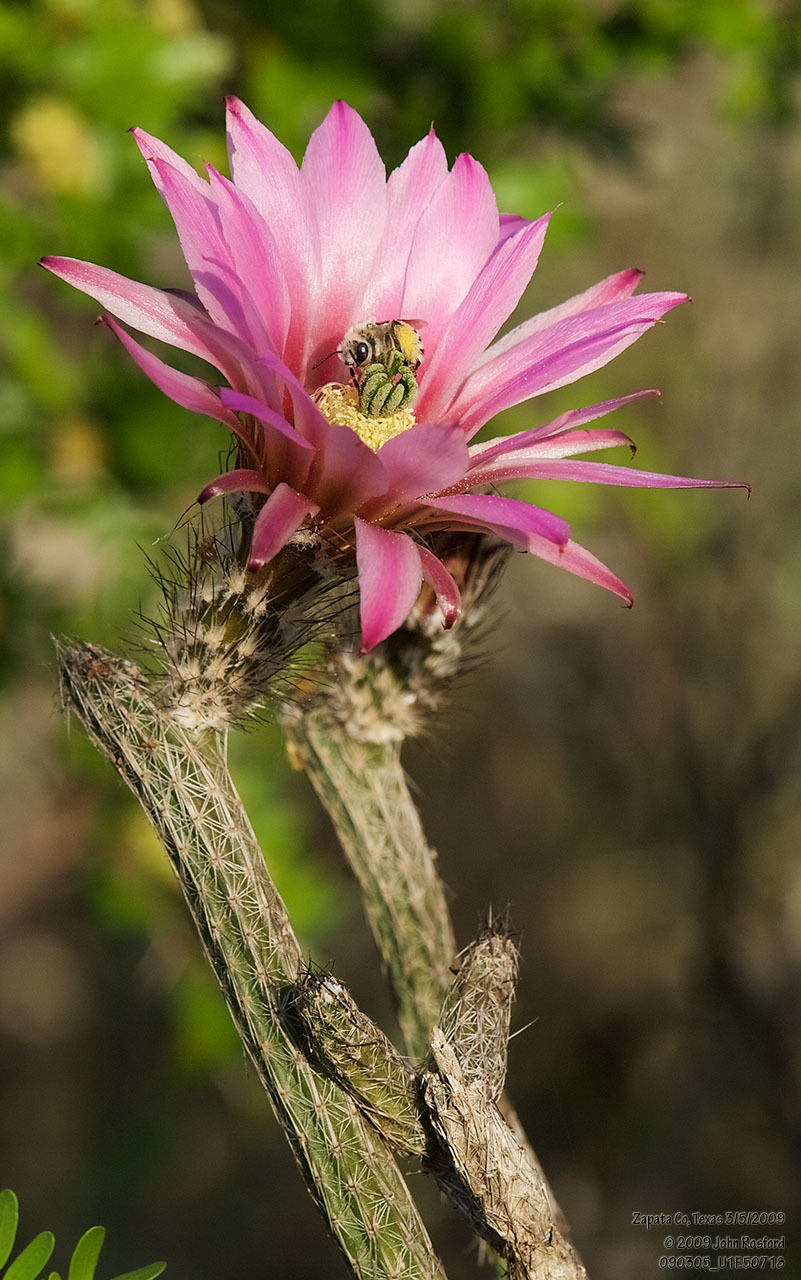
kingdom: Plantae
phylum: Tracheophyta
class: Magnoliopsida
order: Caryophyllales
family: Cactaceae
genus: Echinocereus
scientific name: Echinocereus poselgeri
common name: Dahlia apple cactus
